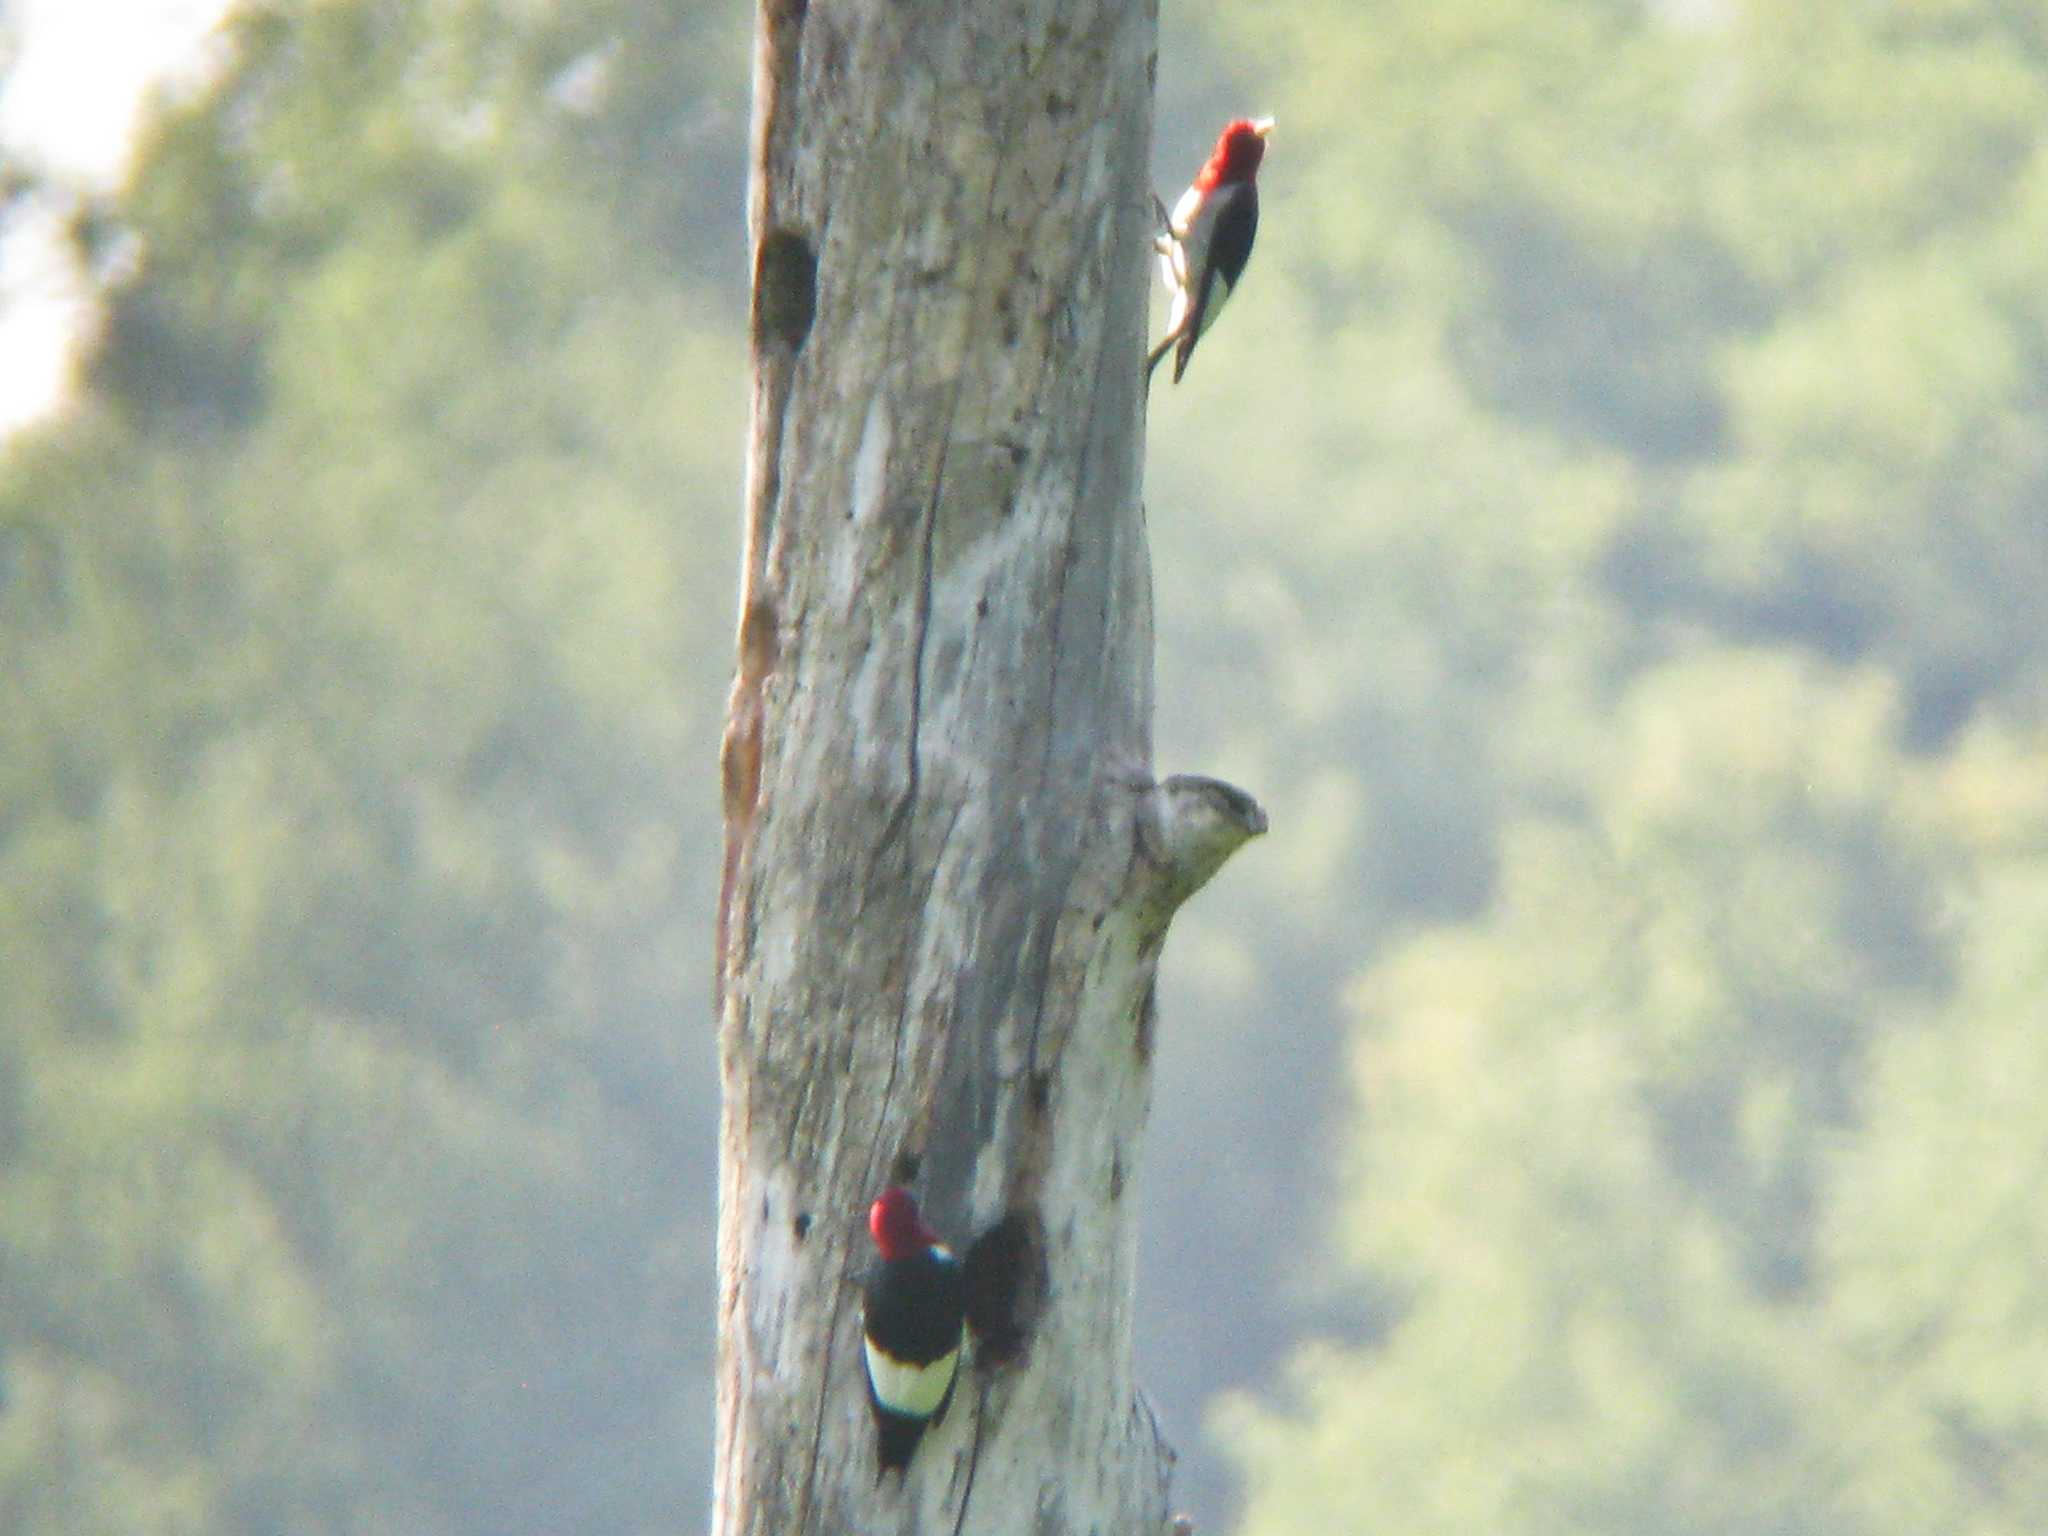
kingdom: Animalia
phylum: Chordata
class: Aves
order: Piciformes
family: Picidae
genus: Melanerpes
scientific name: Melanerpes erythrocephalus
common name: Red-headed woodpecker
